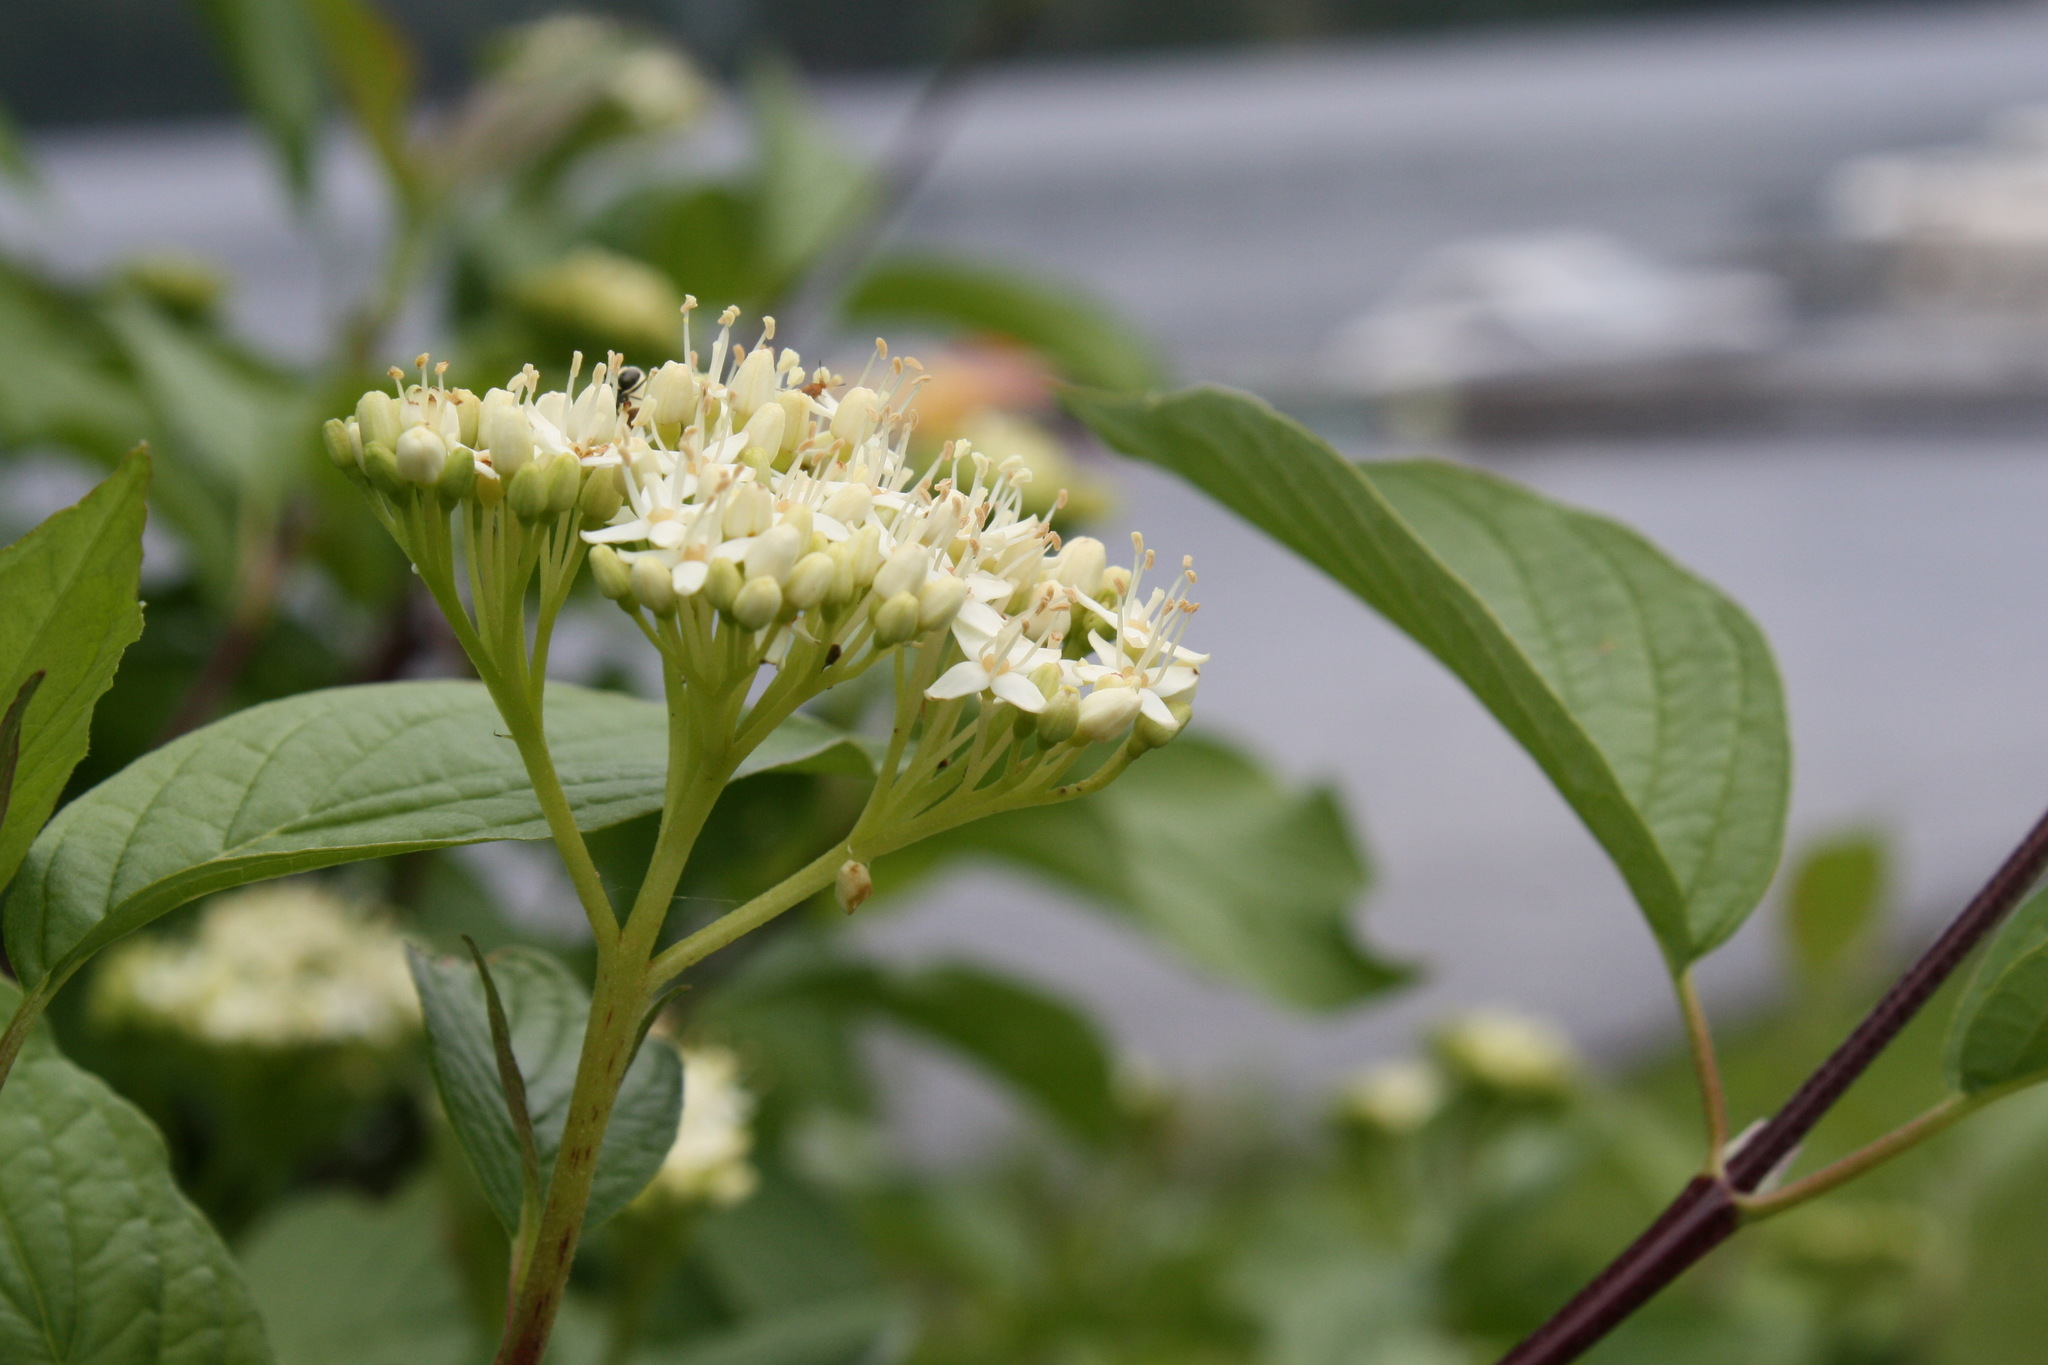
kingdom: Plantae
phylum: Tracheophyta
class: Magnoliopsida
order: Cornales
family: Cornaceae
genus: Cornus
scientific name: Cornus sericea
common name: Red-osier dogwood
